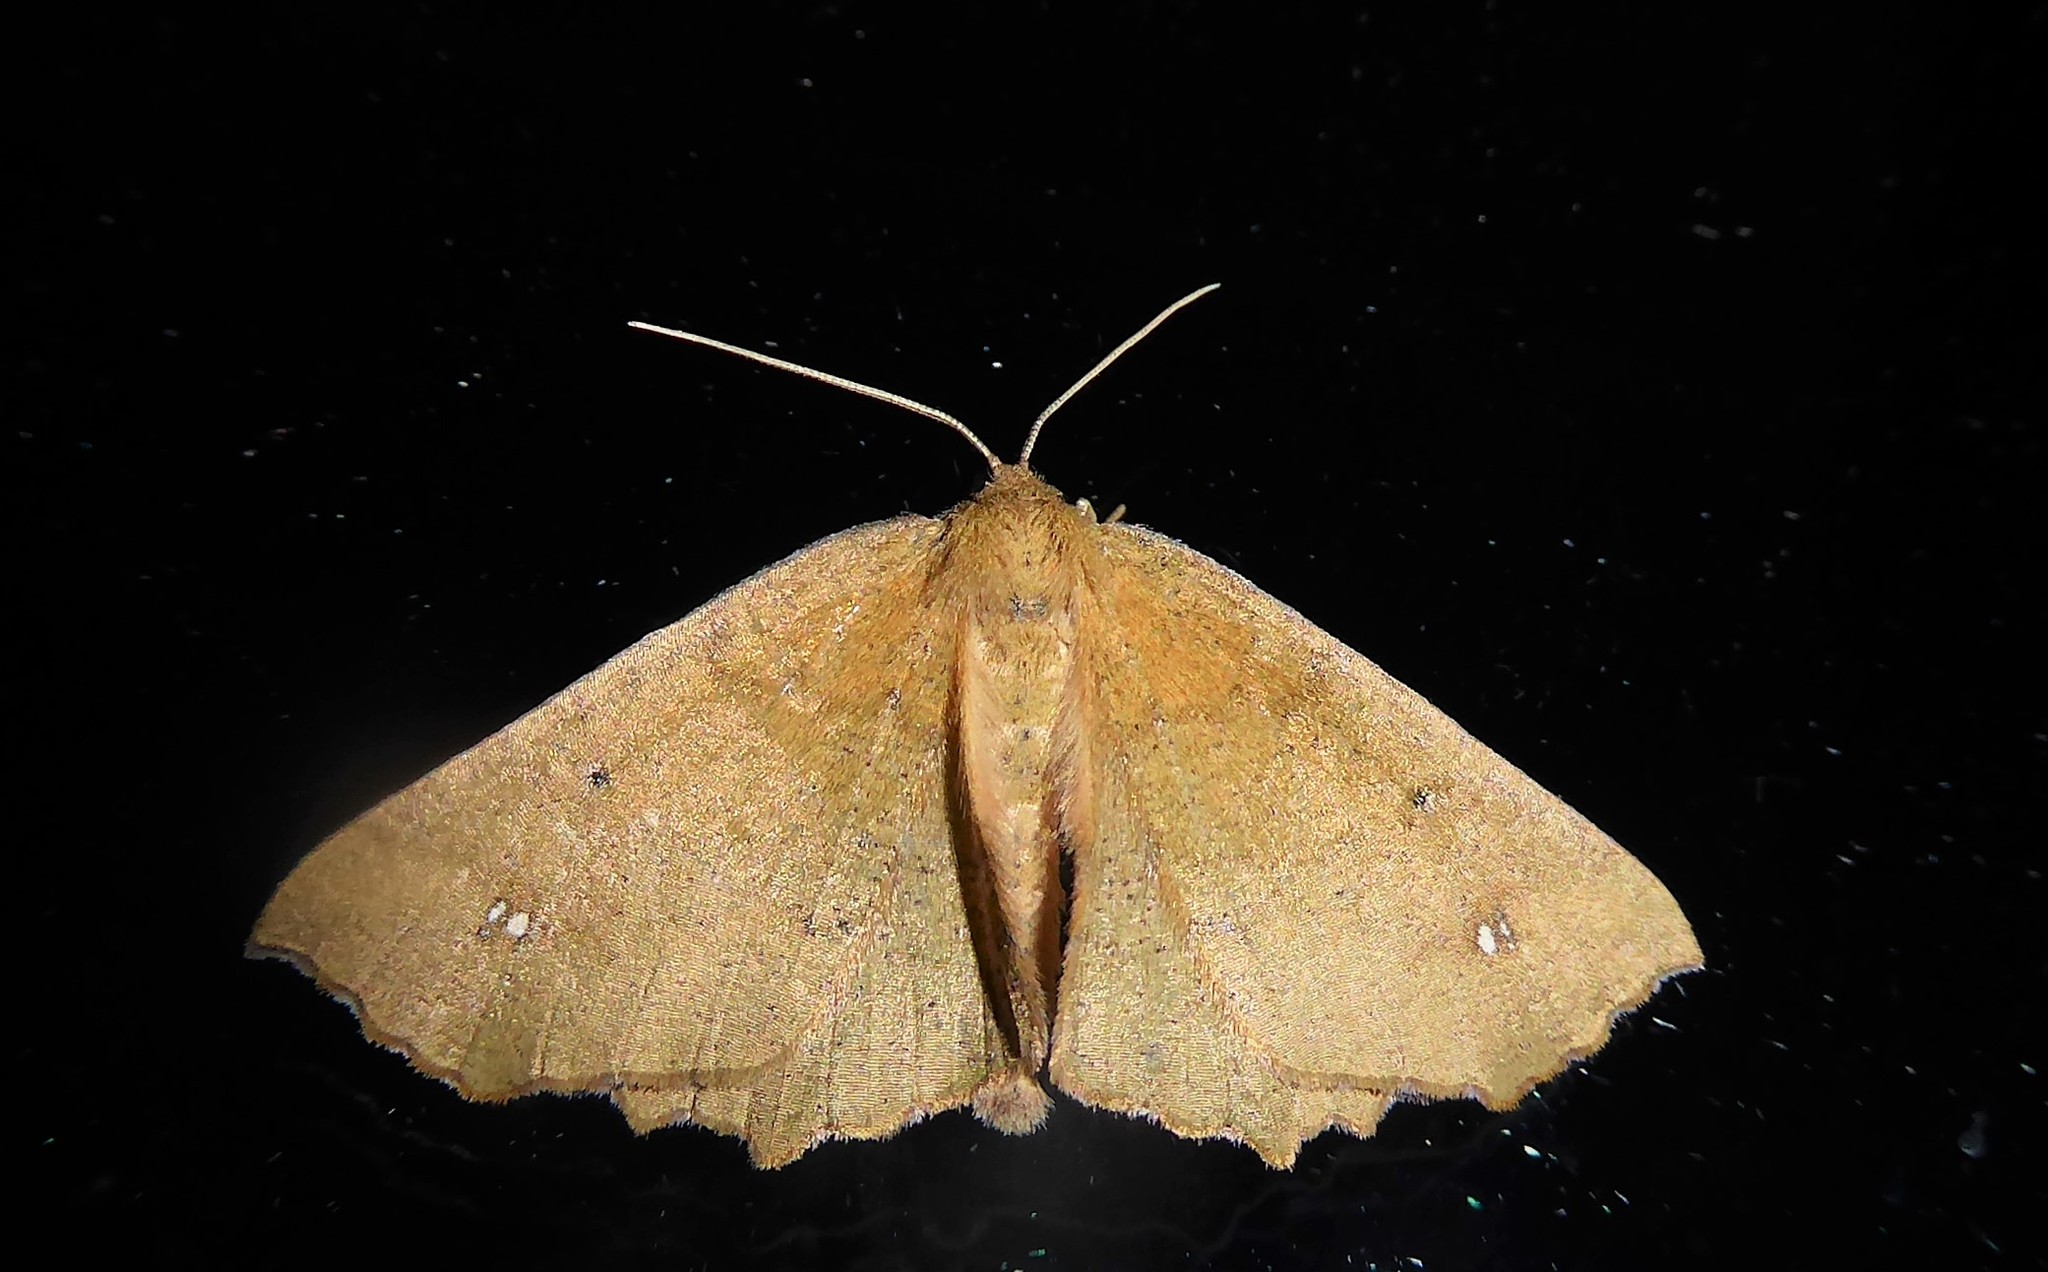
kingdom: Animalia
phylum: Arthropoda
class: Insecta
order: Lepidoptera
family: Geometridae
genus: Xyridacma
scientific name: Xyridacma ustaria
